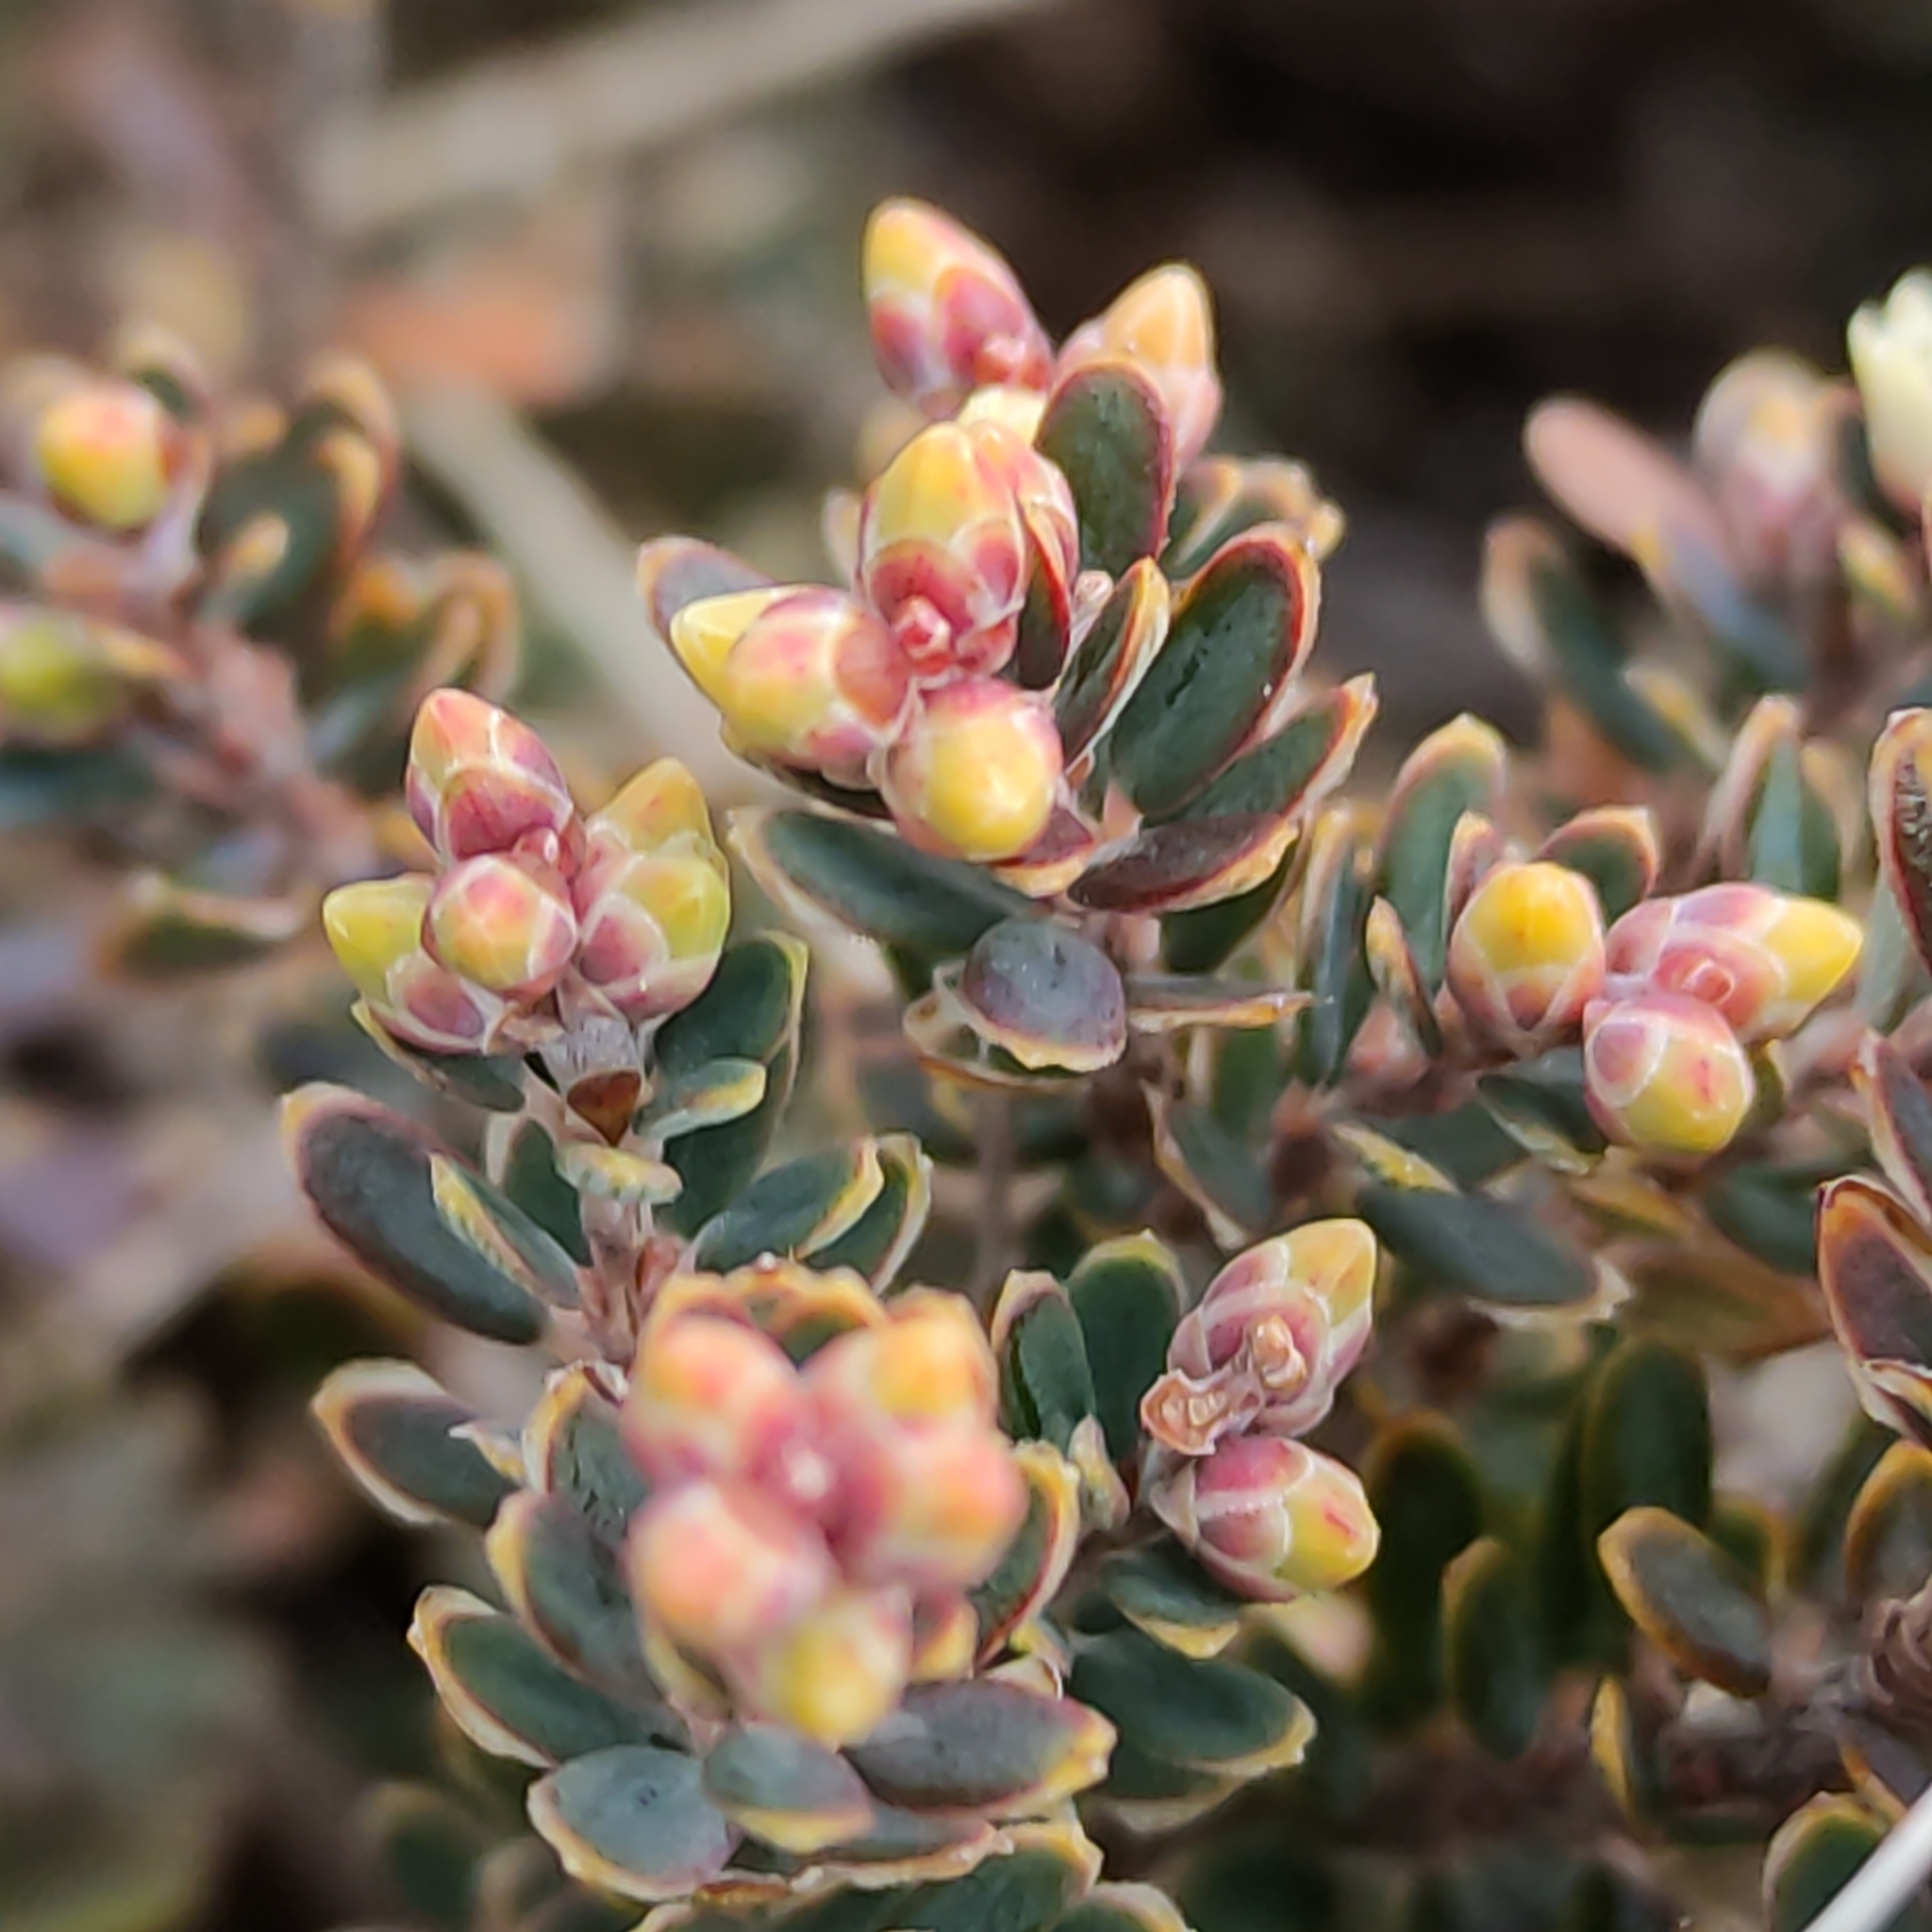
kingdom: Plantae
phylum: Tracheophyta
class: Magnoliopsida
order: Ericales
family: Ericaceae
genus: Acrothamnus
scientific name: Acrothamnus colensoi
